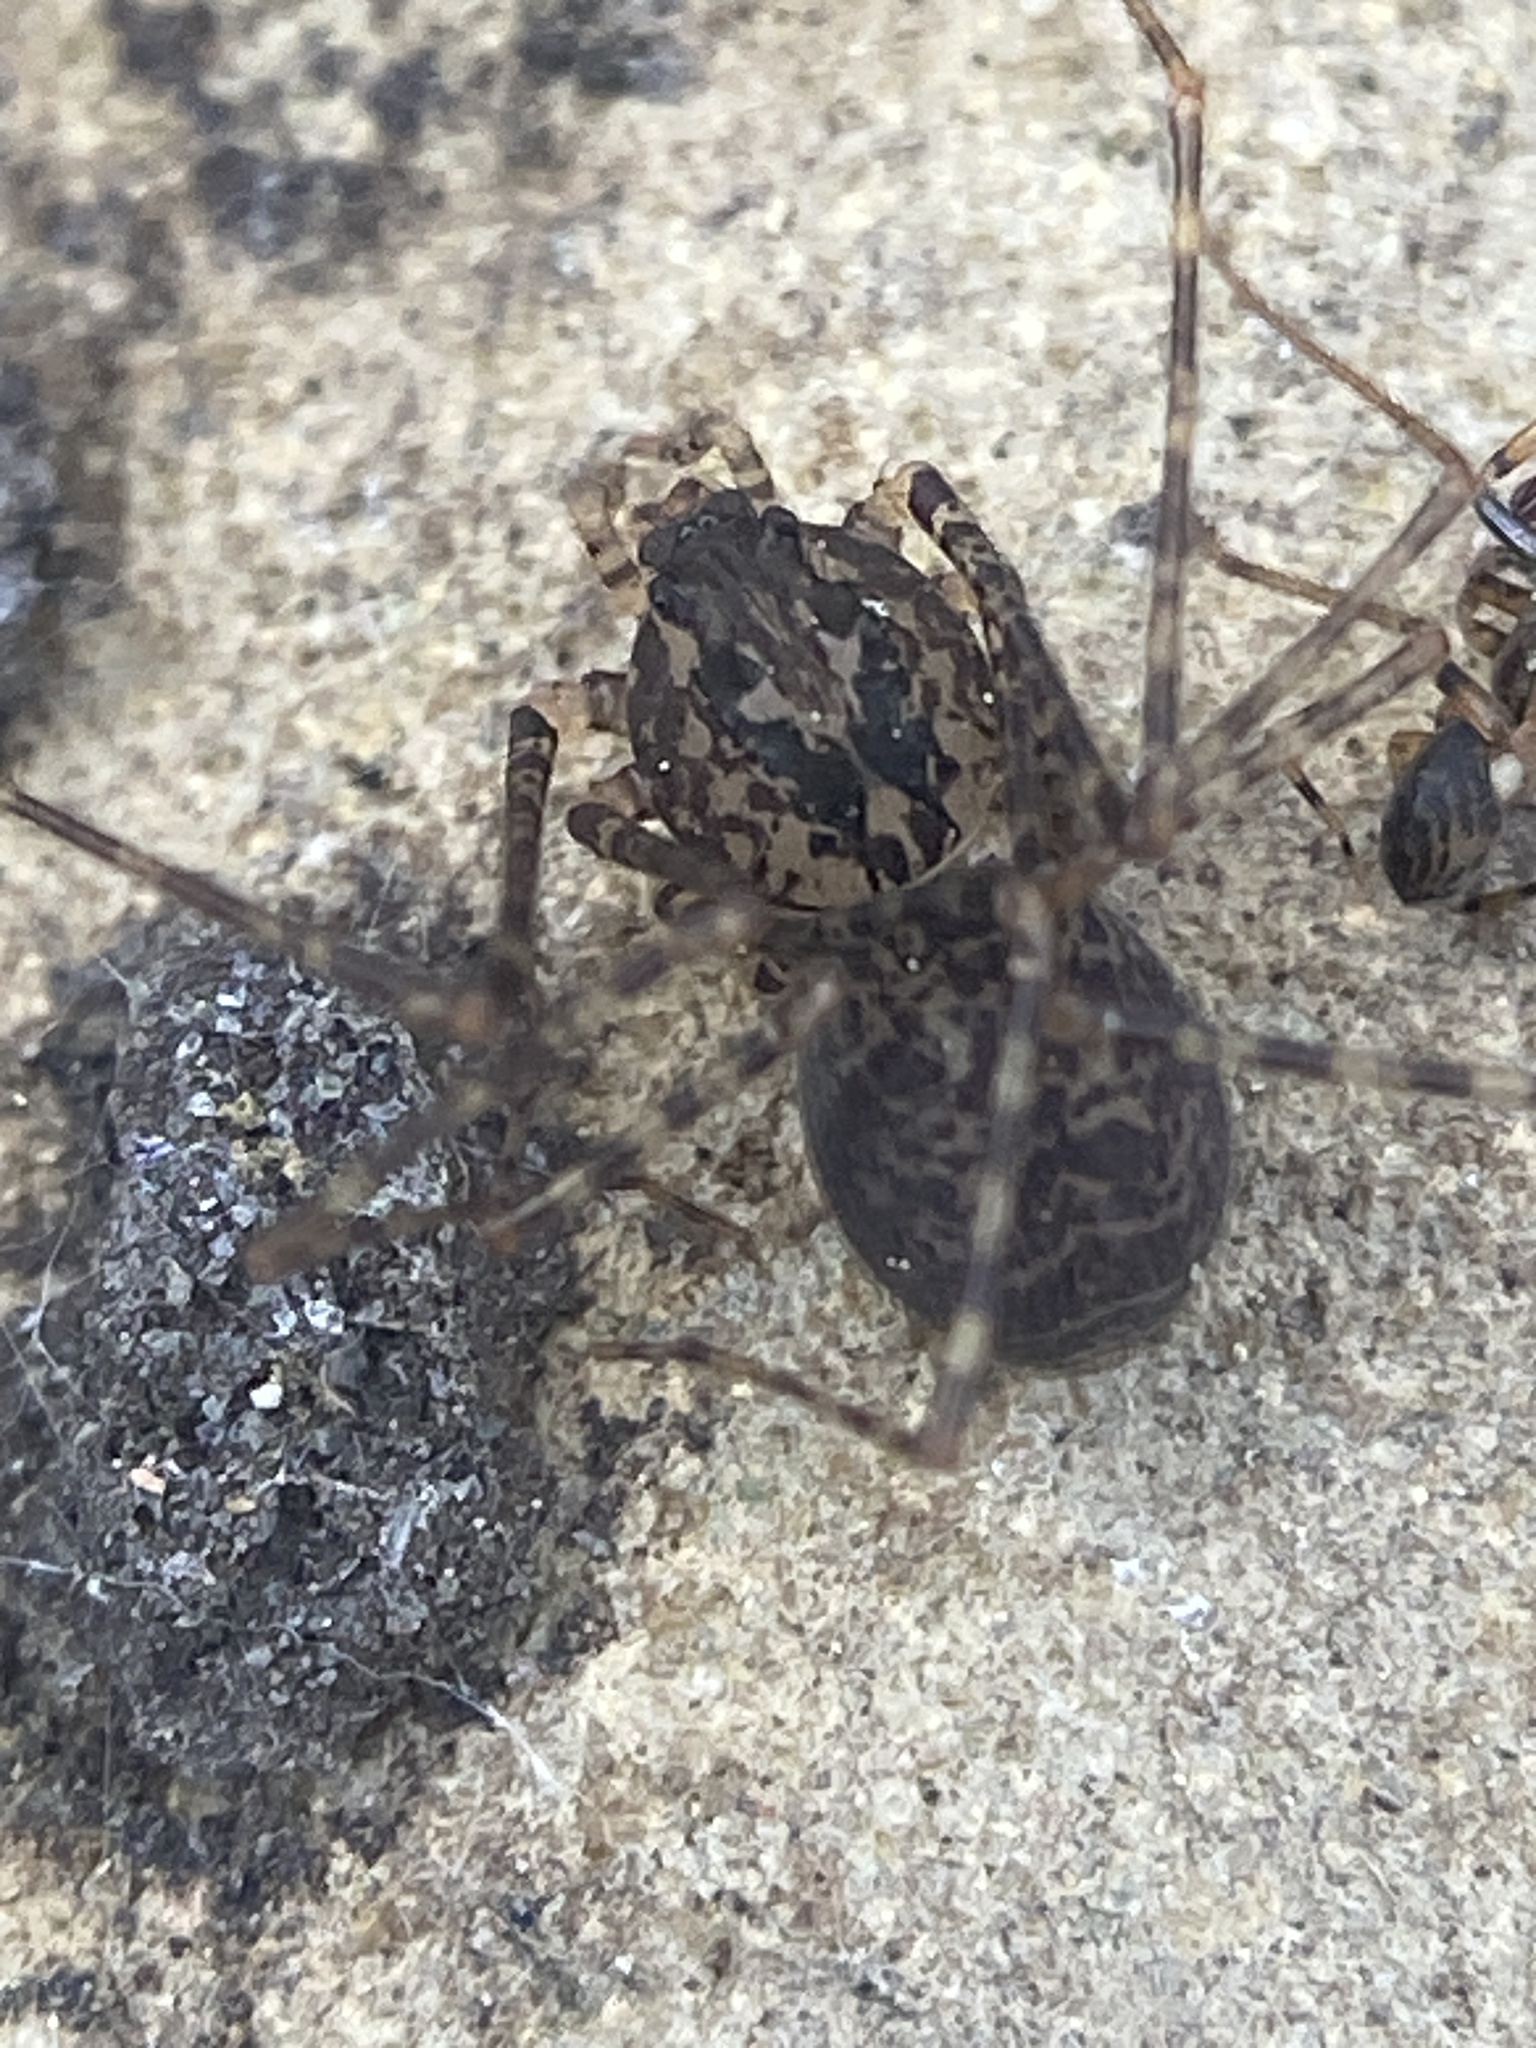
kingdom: Animalia
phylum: Arthropoda
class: Arachnida
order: Araneae
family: Scytodidae
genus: Scytodes
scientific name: Scytodes globula
